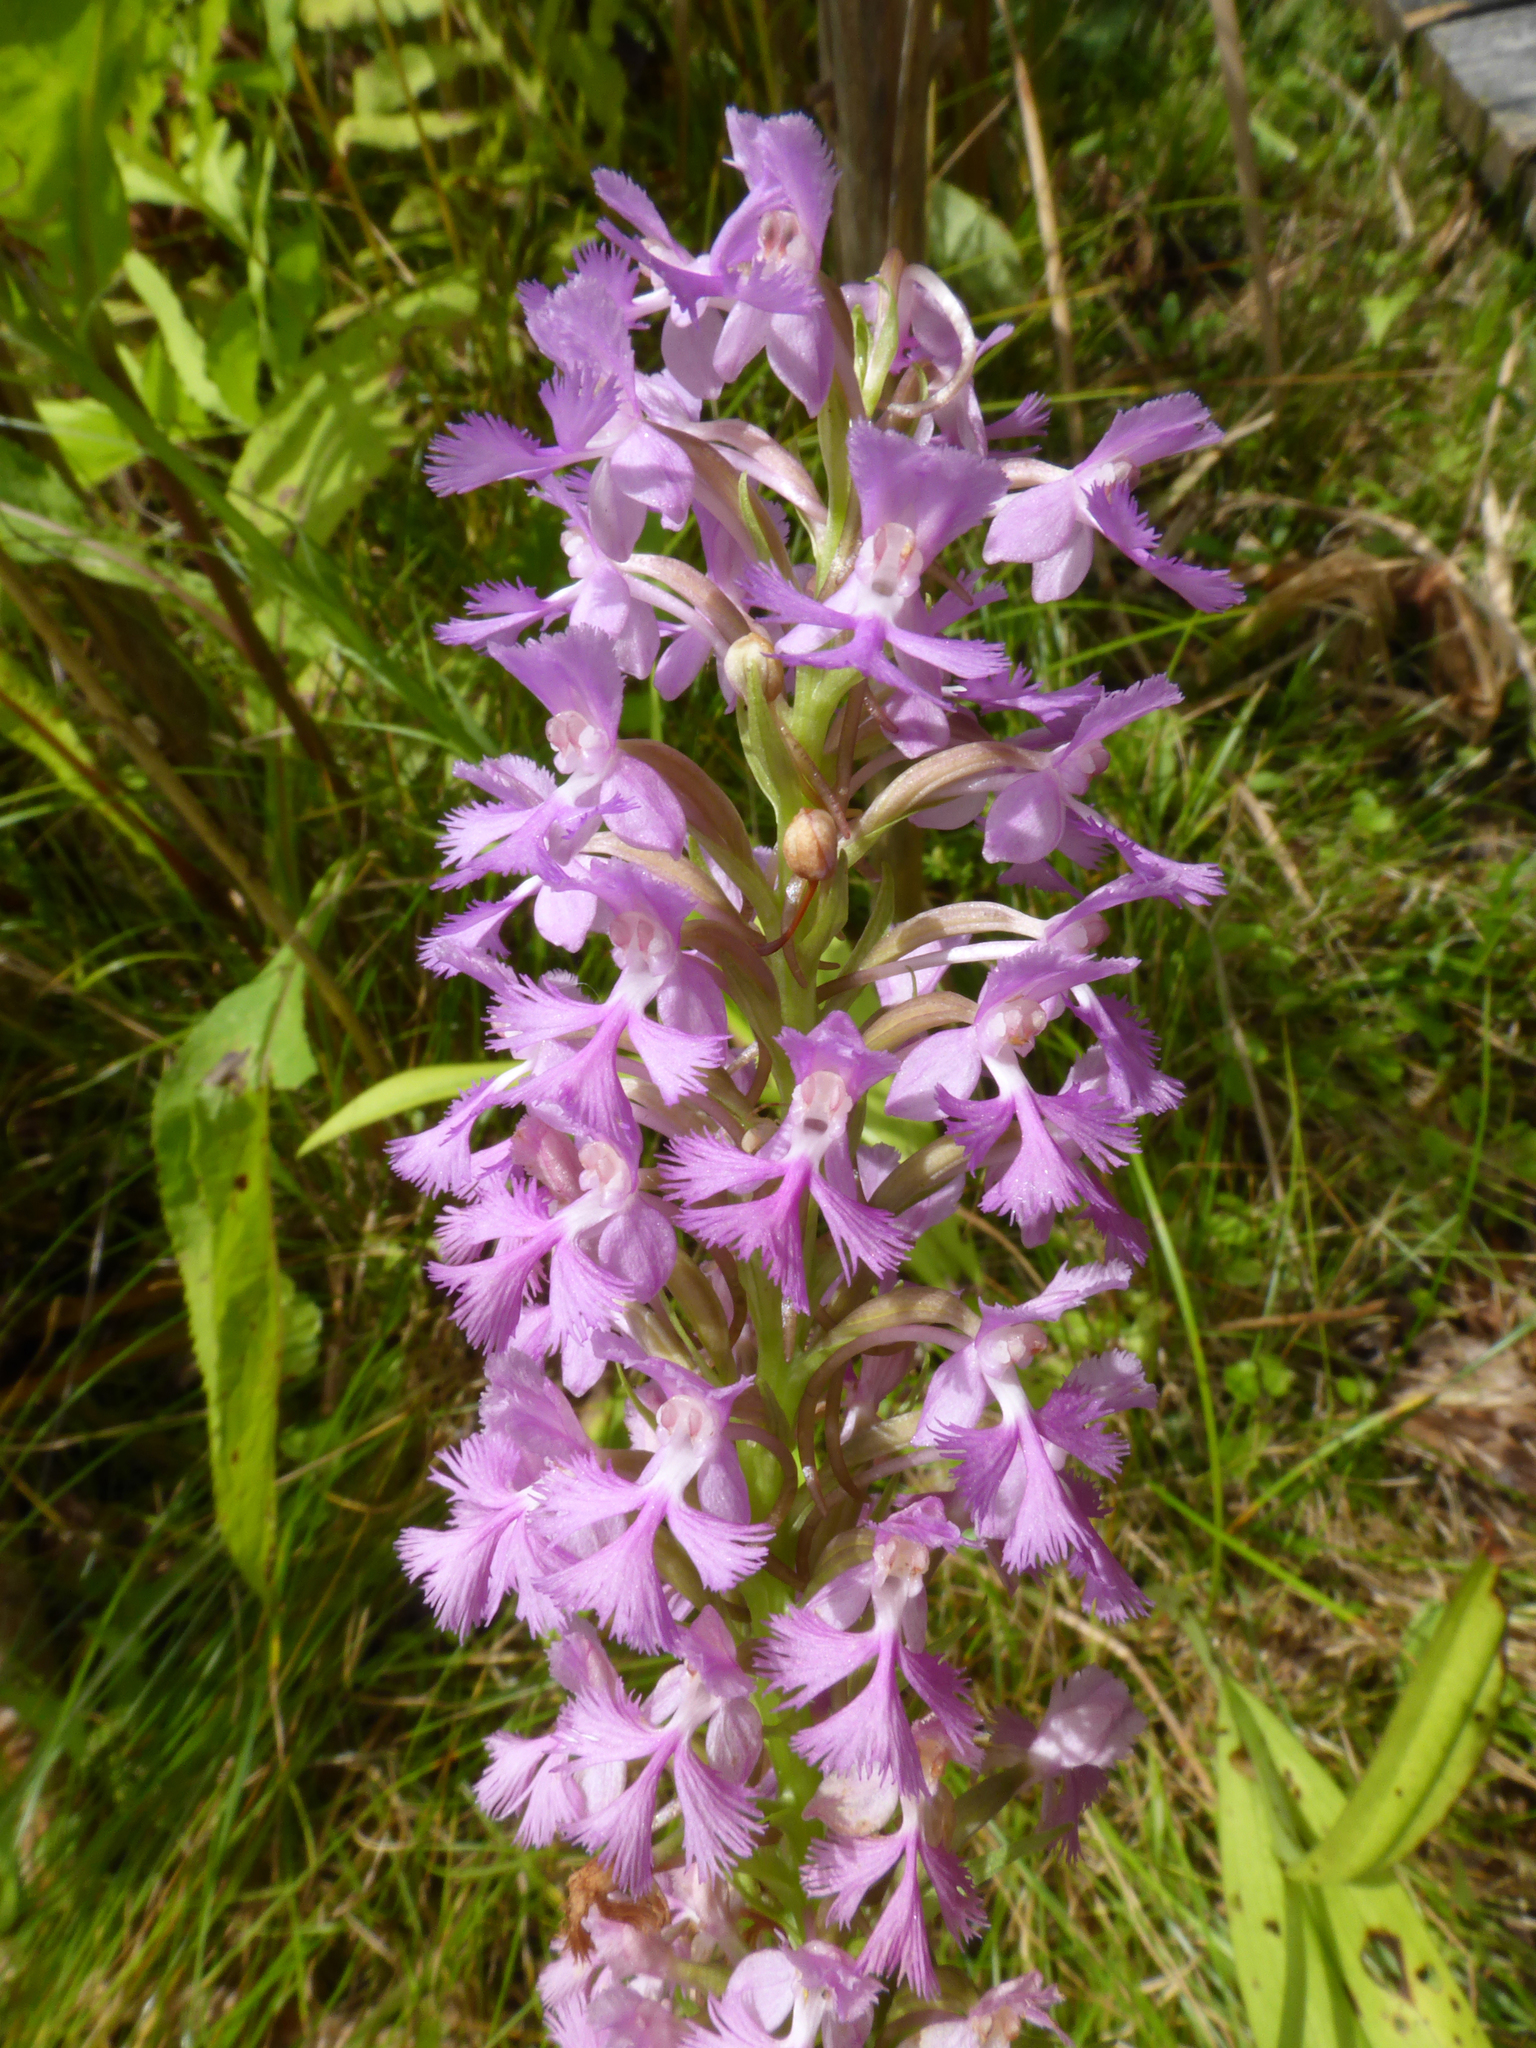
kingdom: Plantae
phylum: Tracheophyta
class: Liliopsida
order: Asparagales
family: Orchidaceae
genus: Platanthera
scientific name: Platanthera psycodes
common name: Lesser purple fringed orchid
